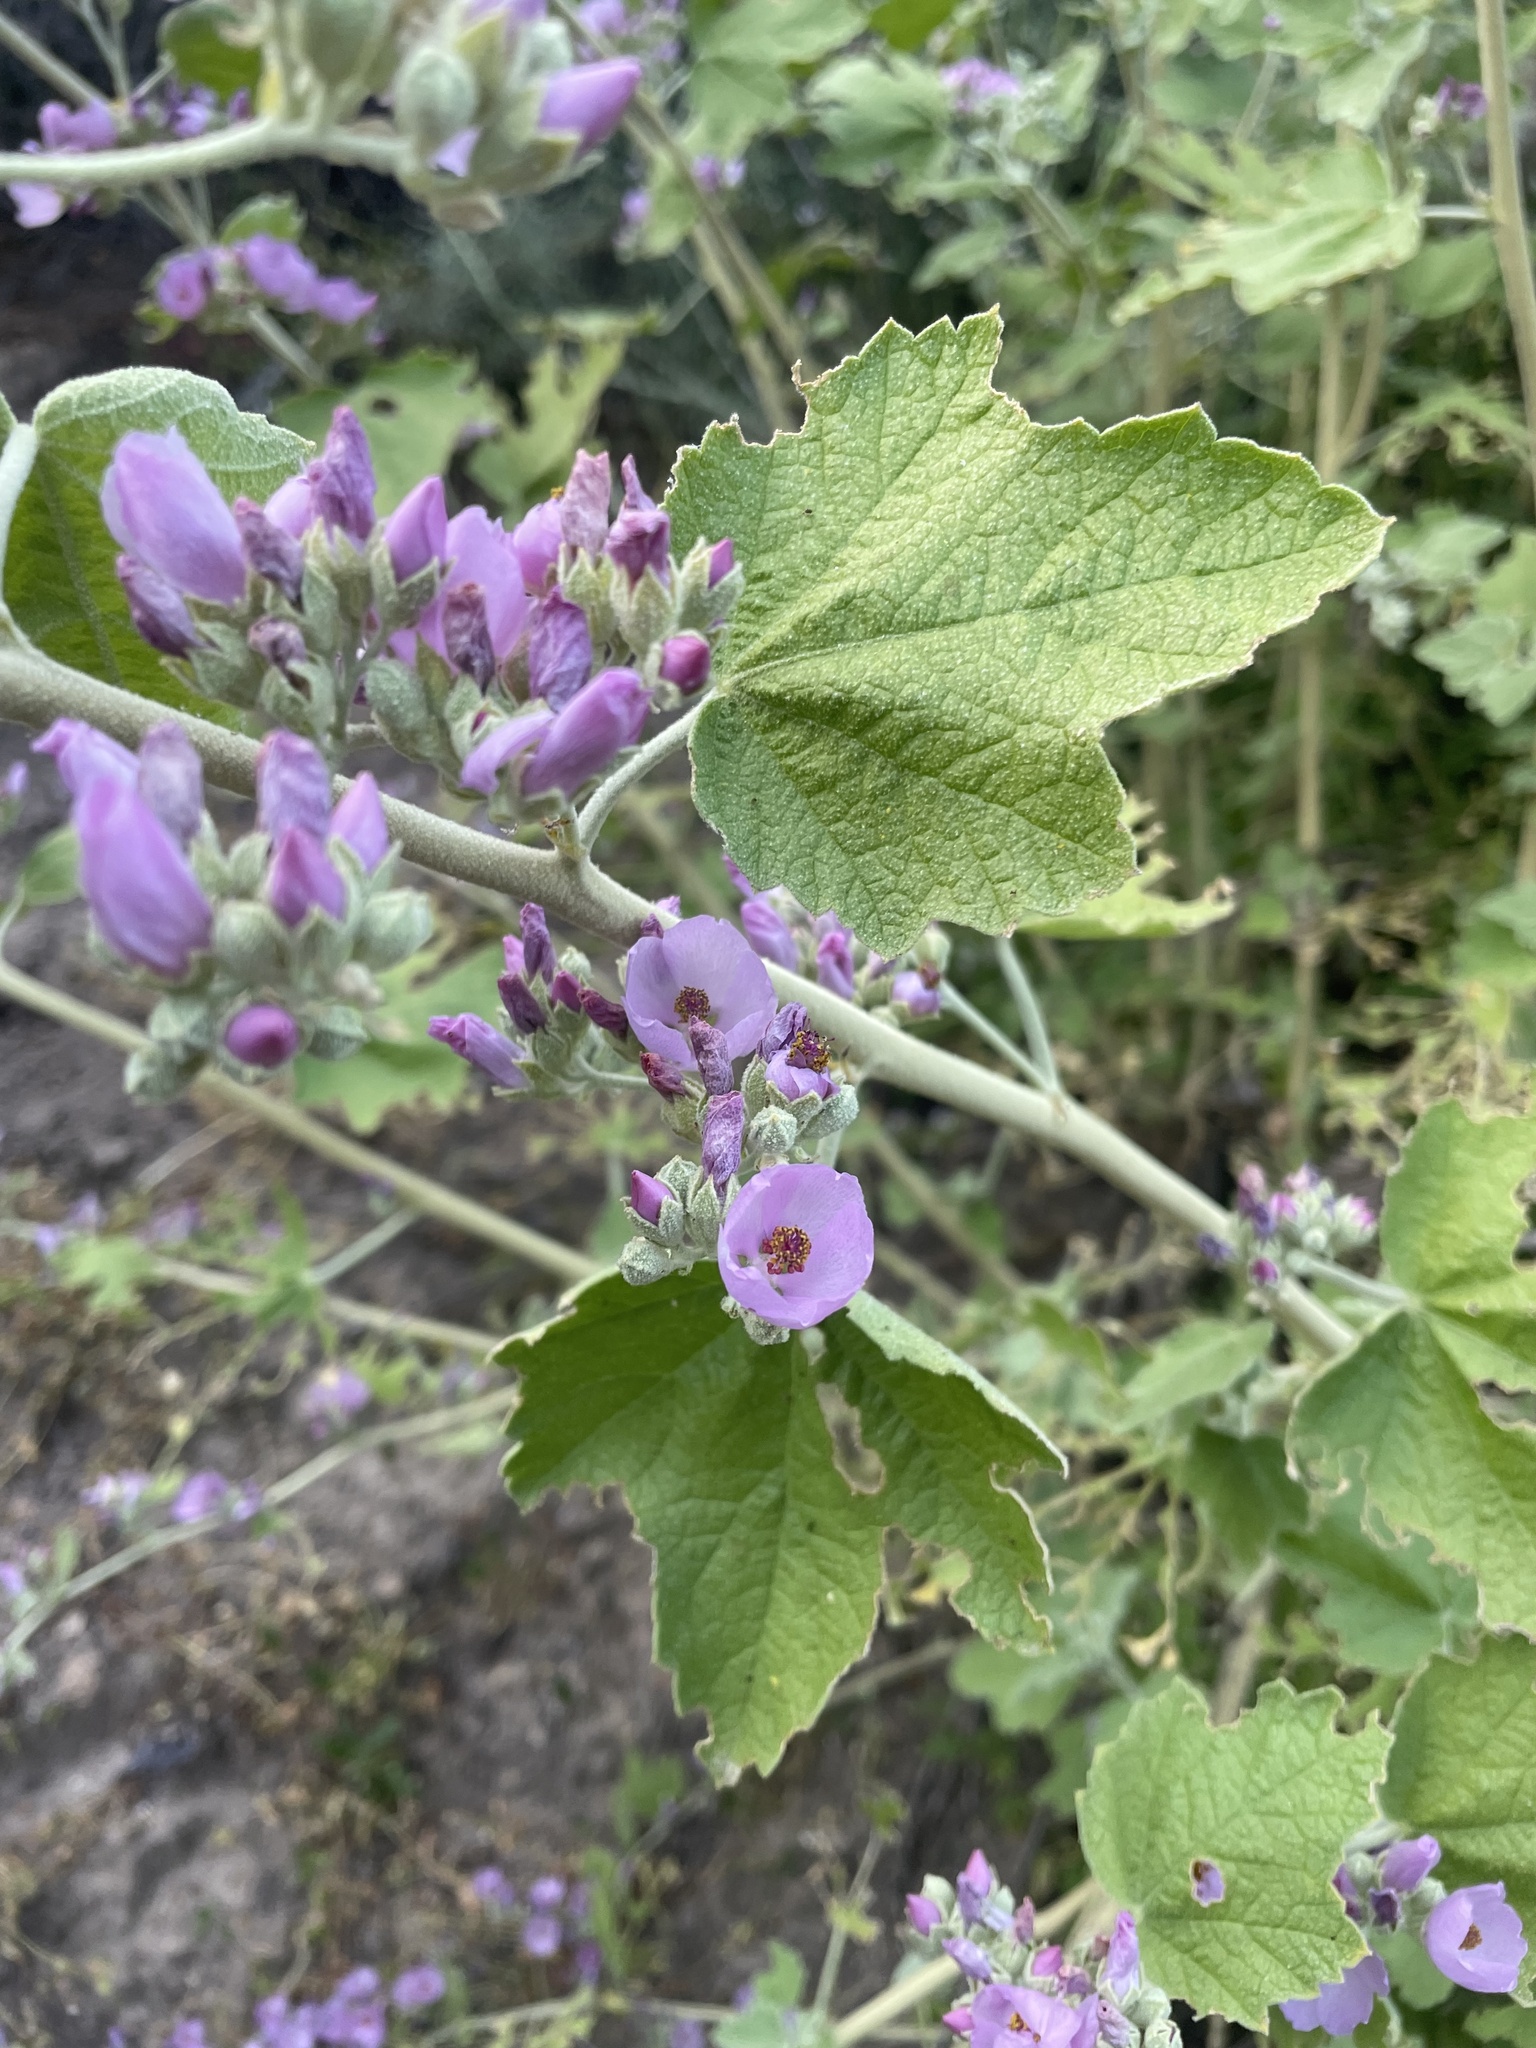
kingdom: Plantae
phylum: Tracheophyta
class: Magnoliopsida
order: Malvales
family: Malvaceae
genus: Malacothamnus
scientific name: Malacothamnus fasciculatus
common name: Sant cruz island bush-mallow
